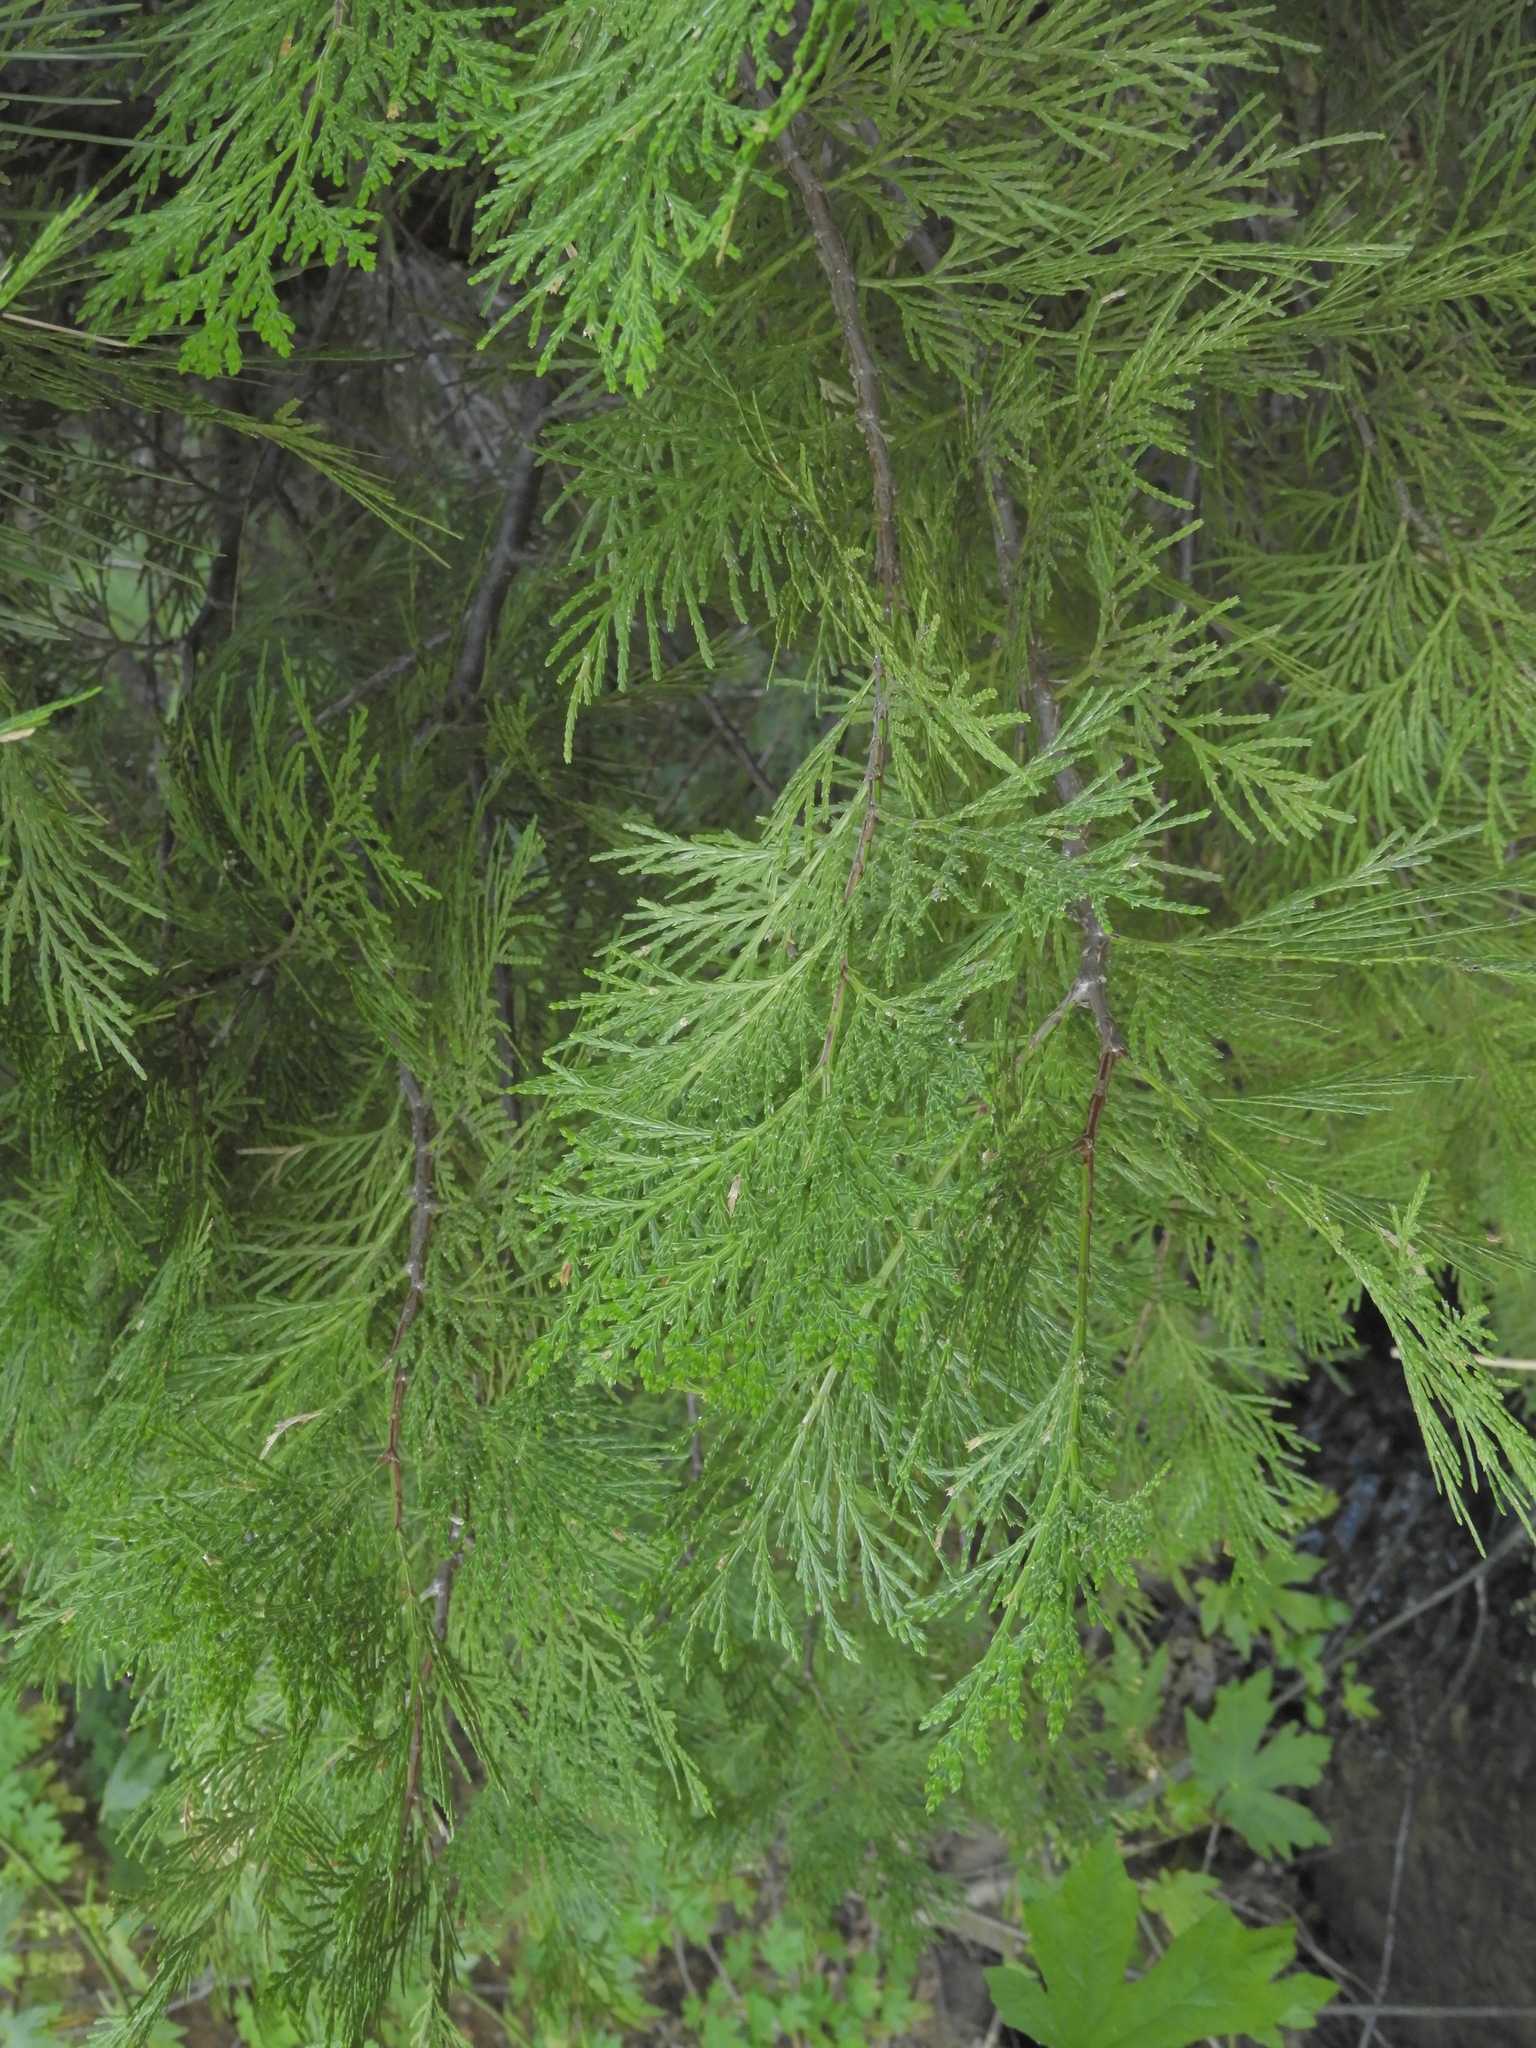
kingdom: Plantae
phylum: Tracheophyta
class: Pinopsida
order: Pinales
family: Cupressaceae
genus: Calocedrus
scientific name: Calocedrus decurrens
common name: Californian incense-cedar
